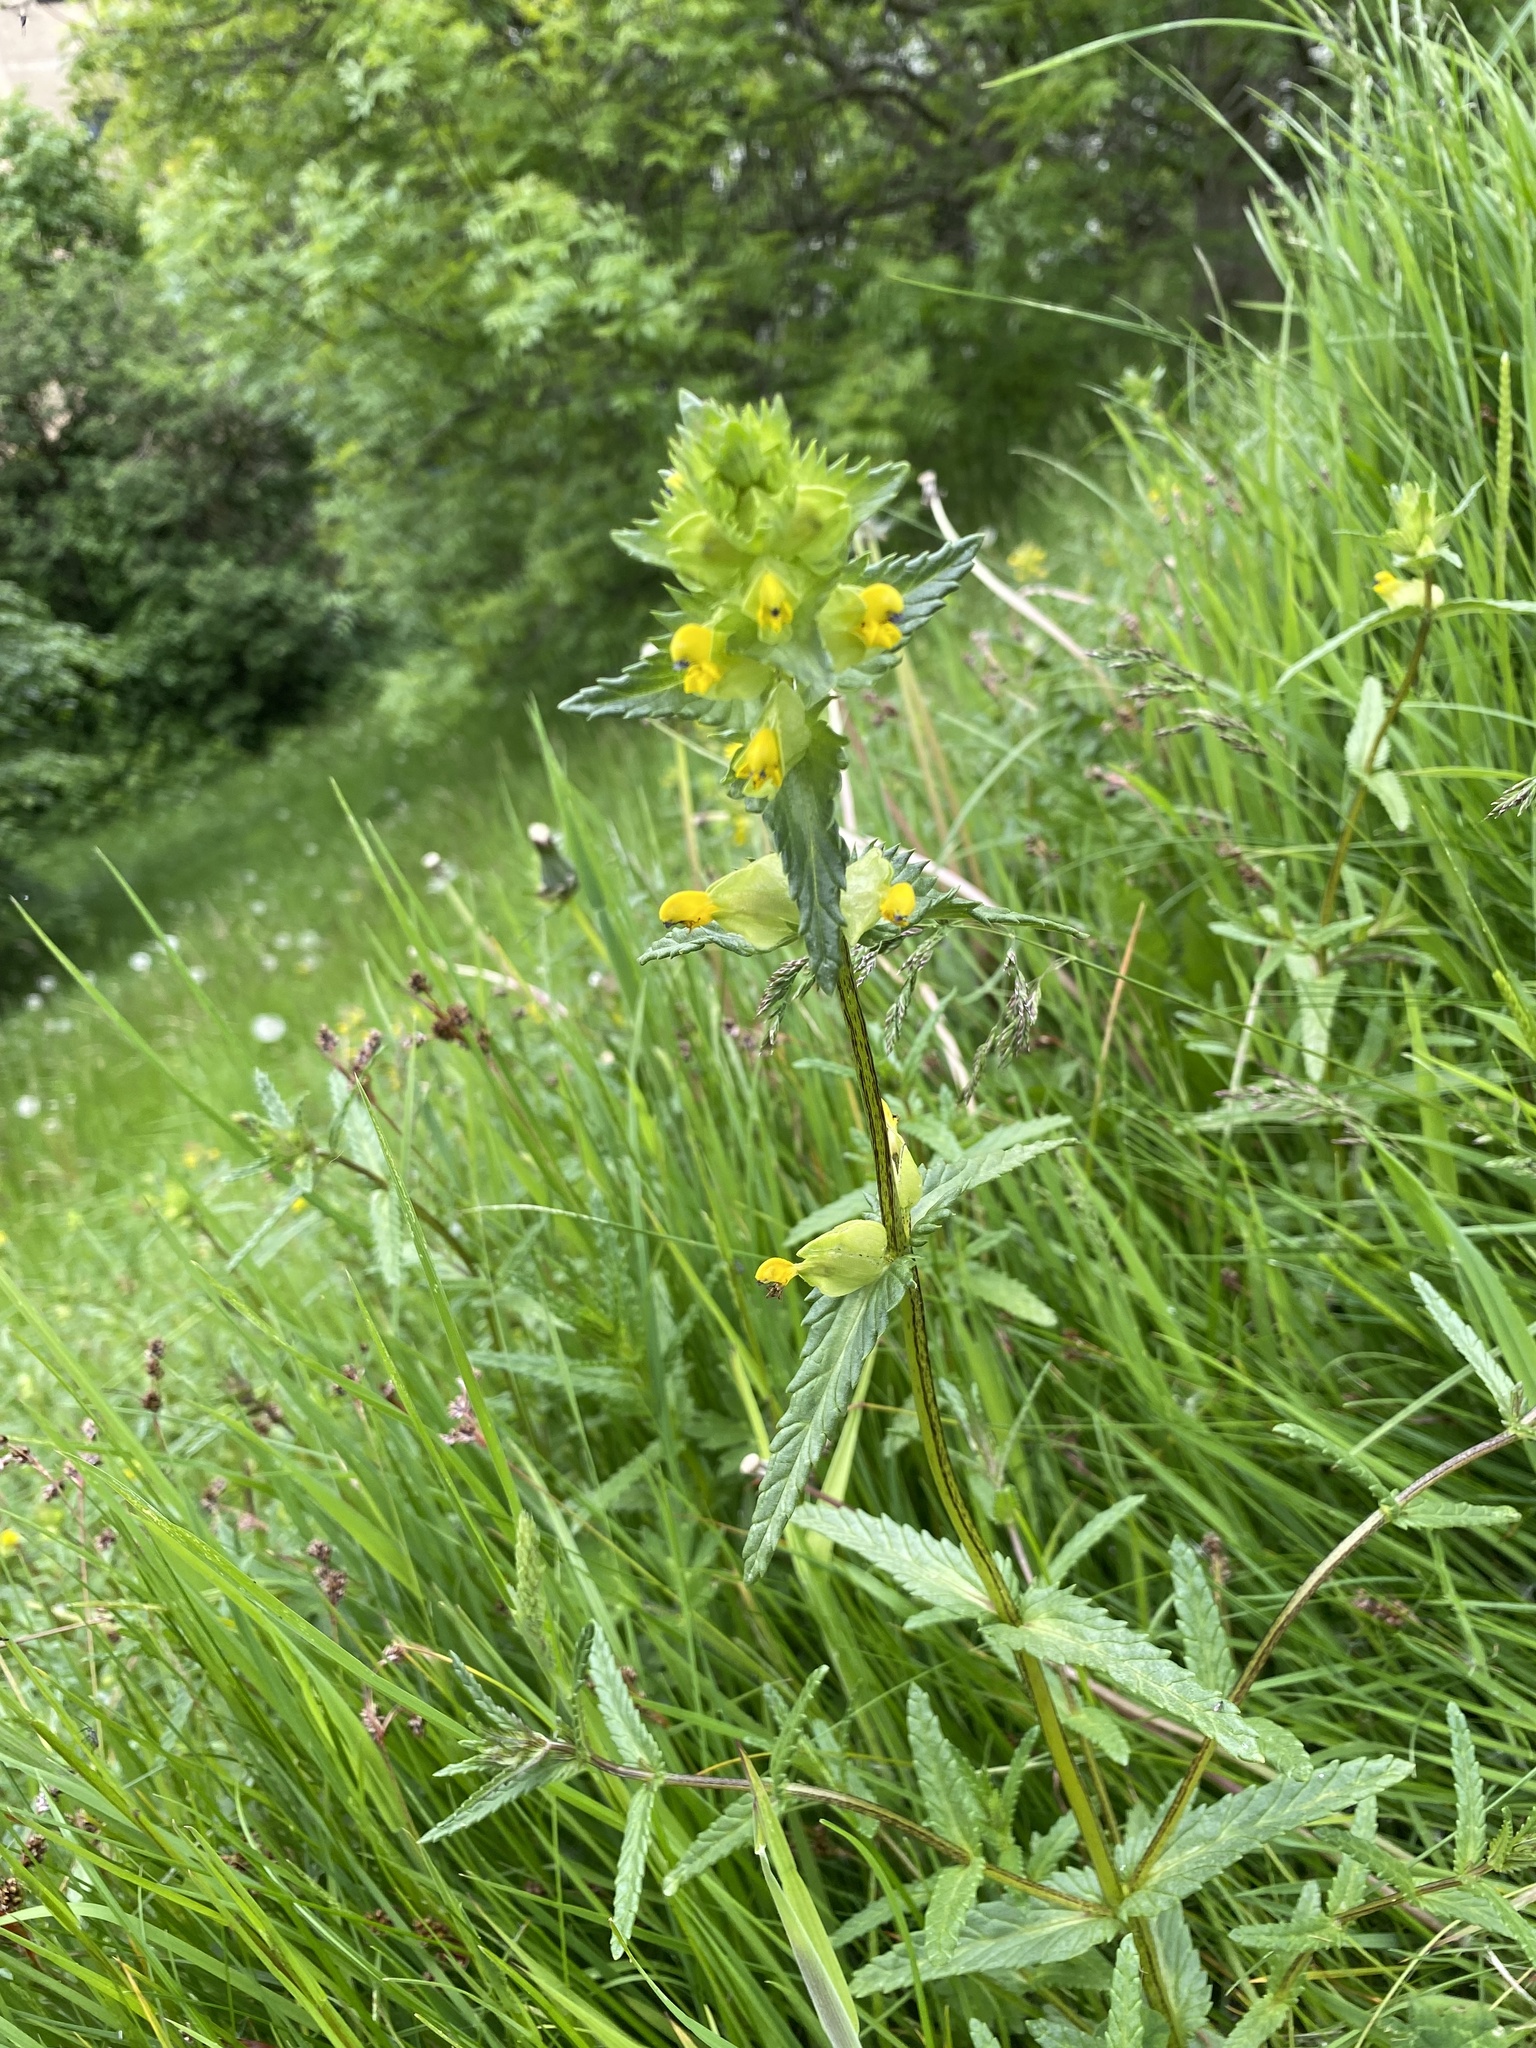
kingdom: Plantae
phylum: Tracheophyta
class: Magnoliopsida
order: Lamiales
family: Orobanchaceae
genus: Rhinanthus
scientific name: Rhinanthus minor
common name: Yellow-rattle
